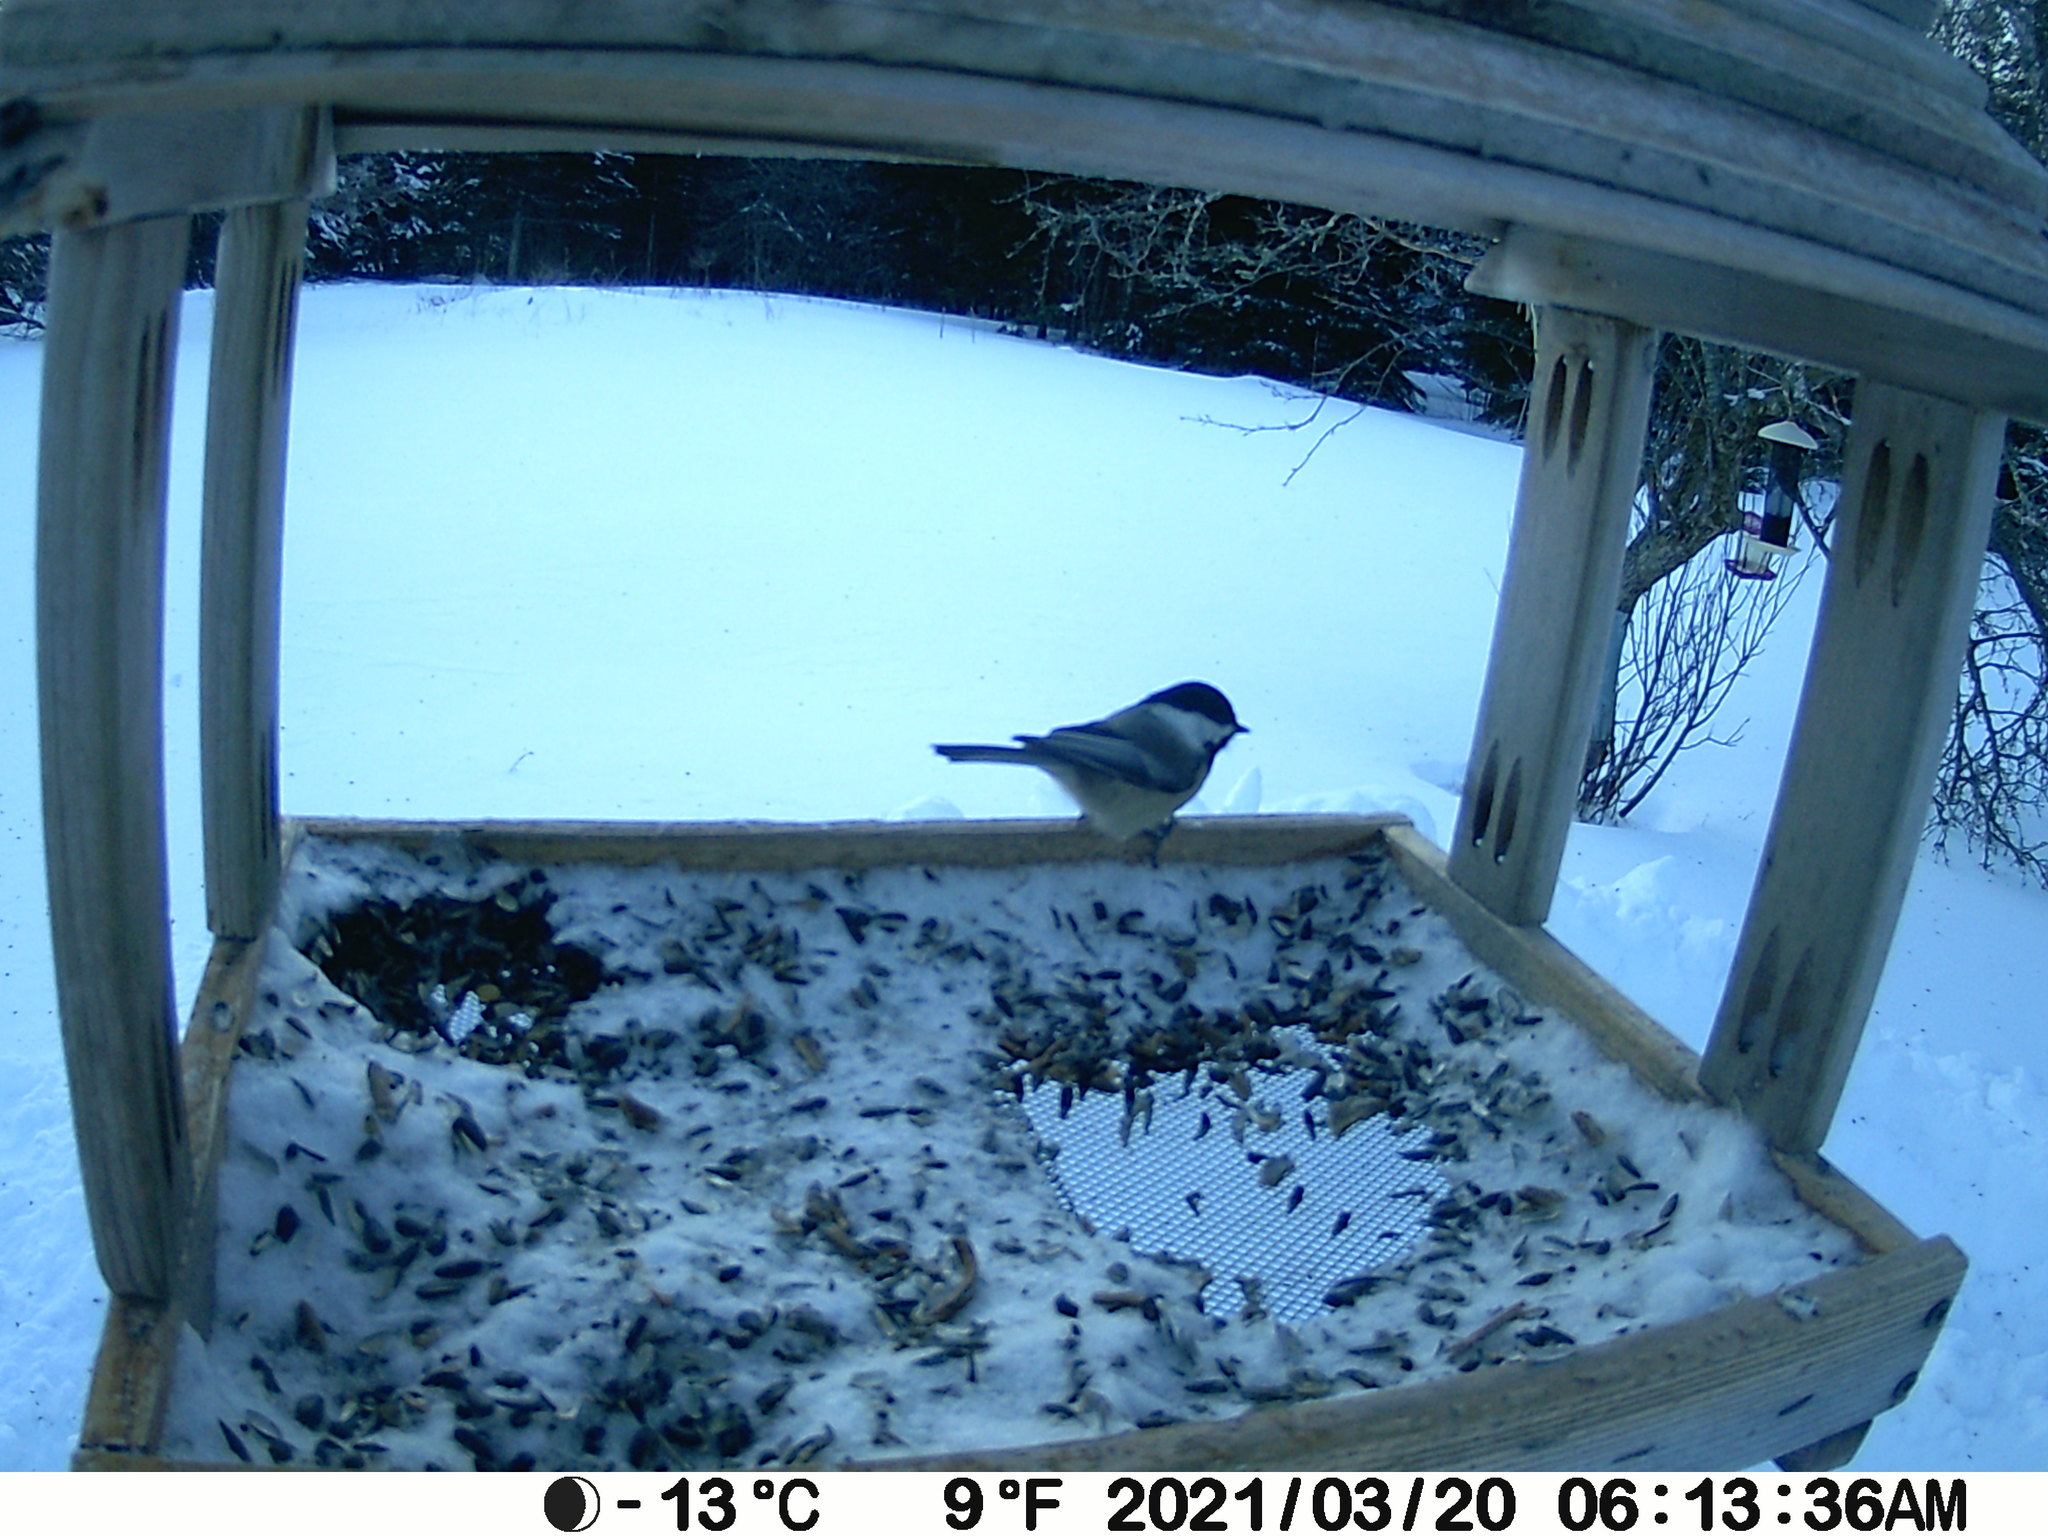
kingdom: Animalia
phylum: Chordata
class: Aves
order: Passeriformes
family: Paridae
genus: Poecile
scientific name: Poecile atricapillus
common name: Black-capped chickadee
